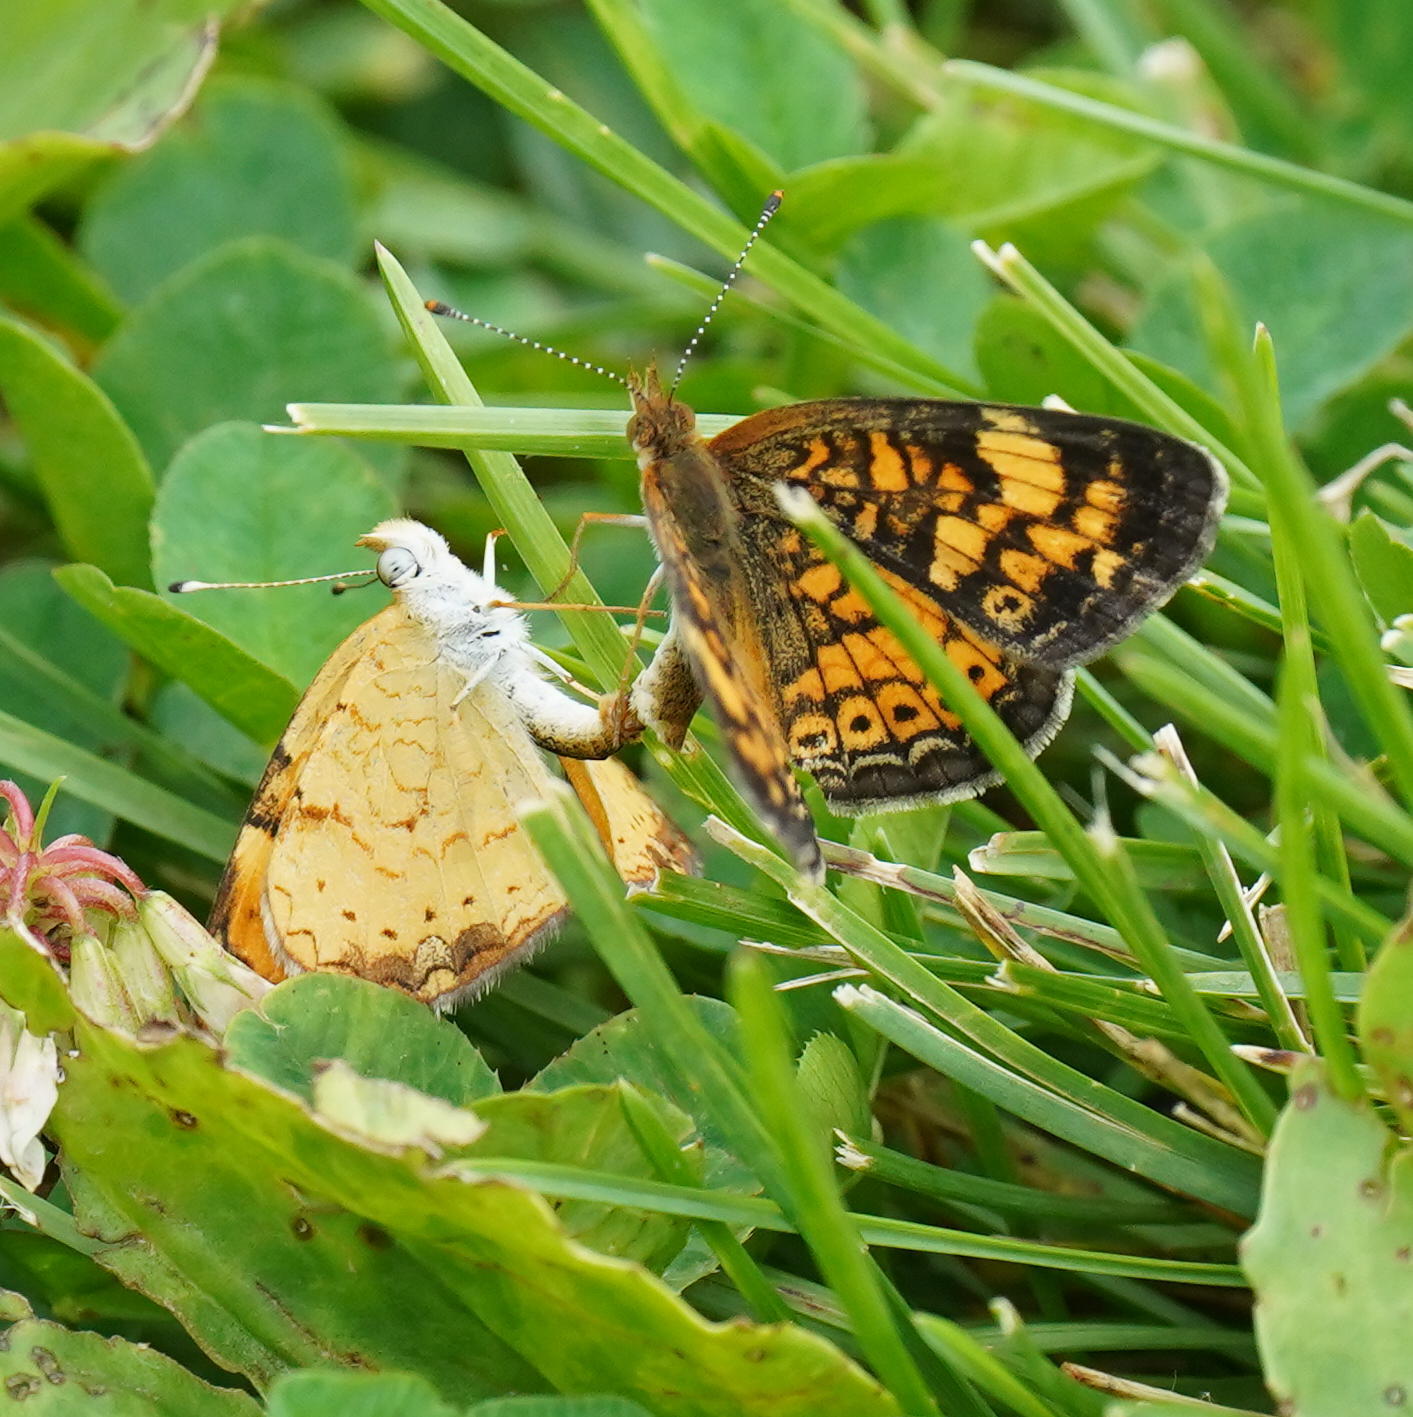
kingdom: Animalia
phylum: Arthropoda
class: Insecta
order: Lepidoptera
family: Nymphalidae
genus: Phyciodes
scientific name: Phyciodes tharos
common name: Pearl crescent
